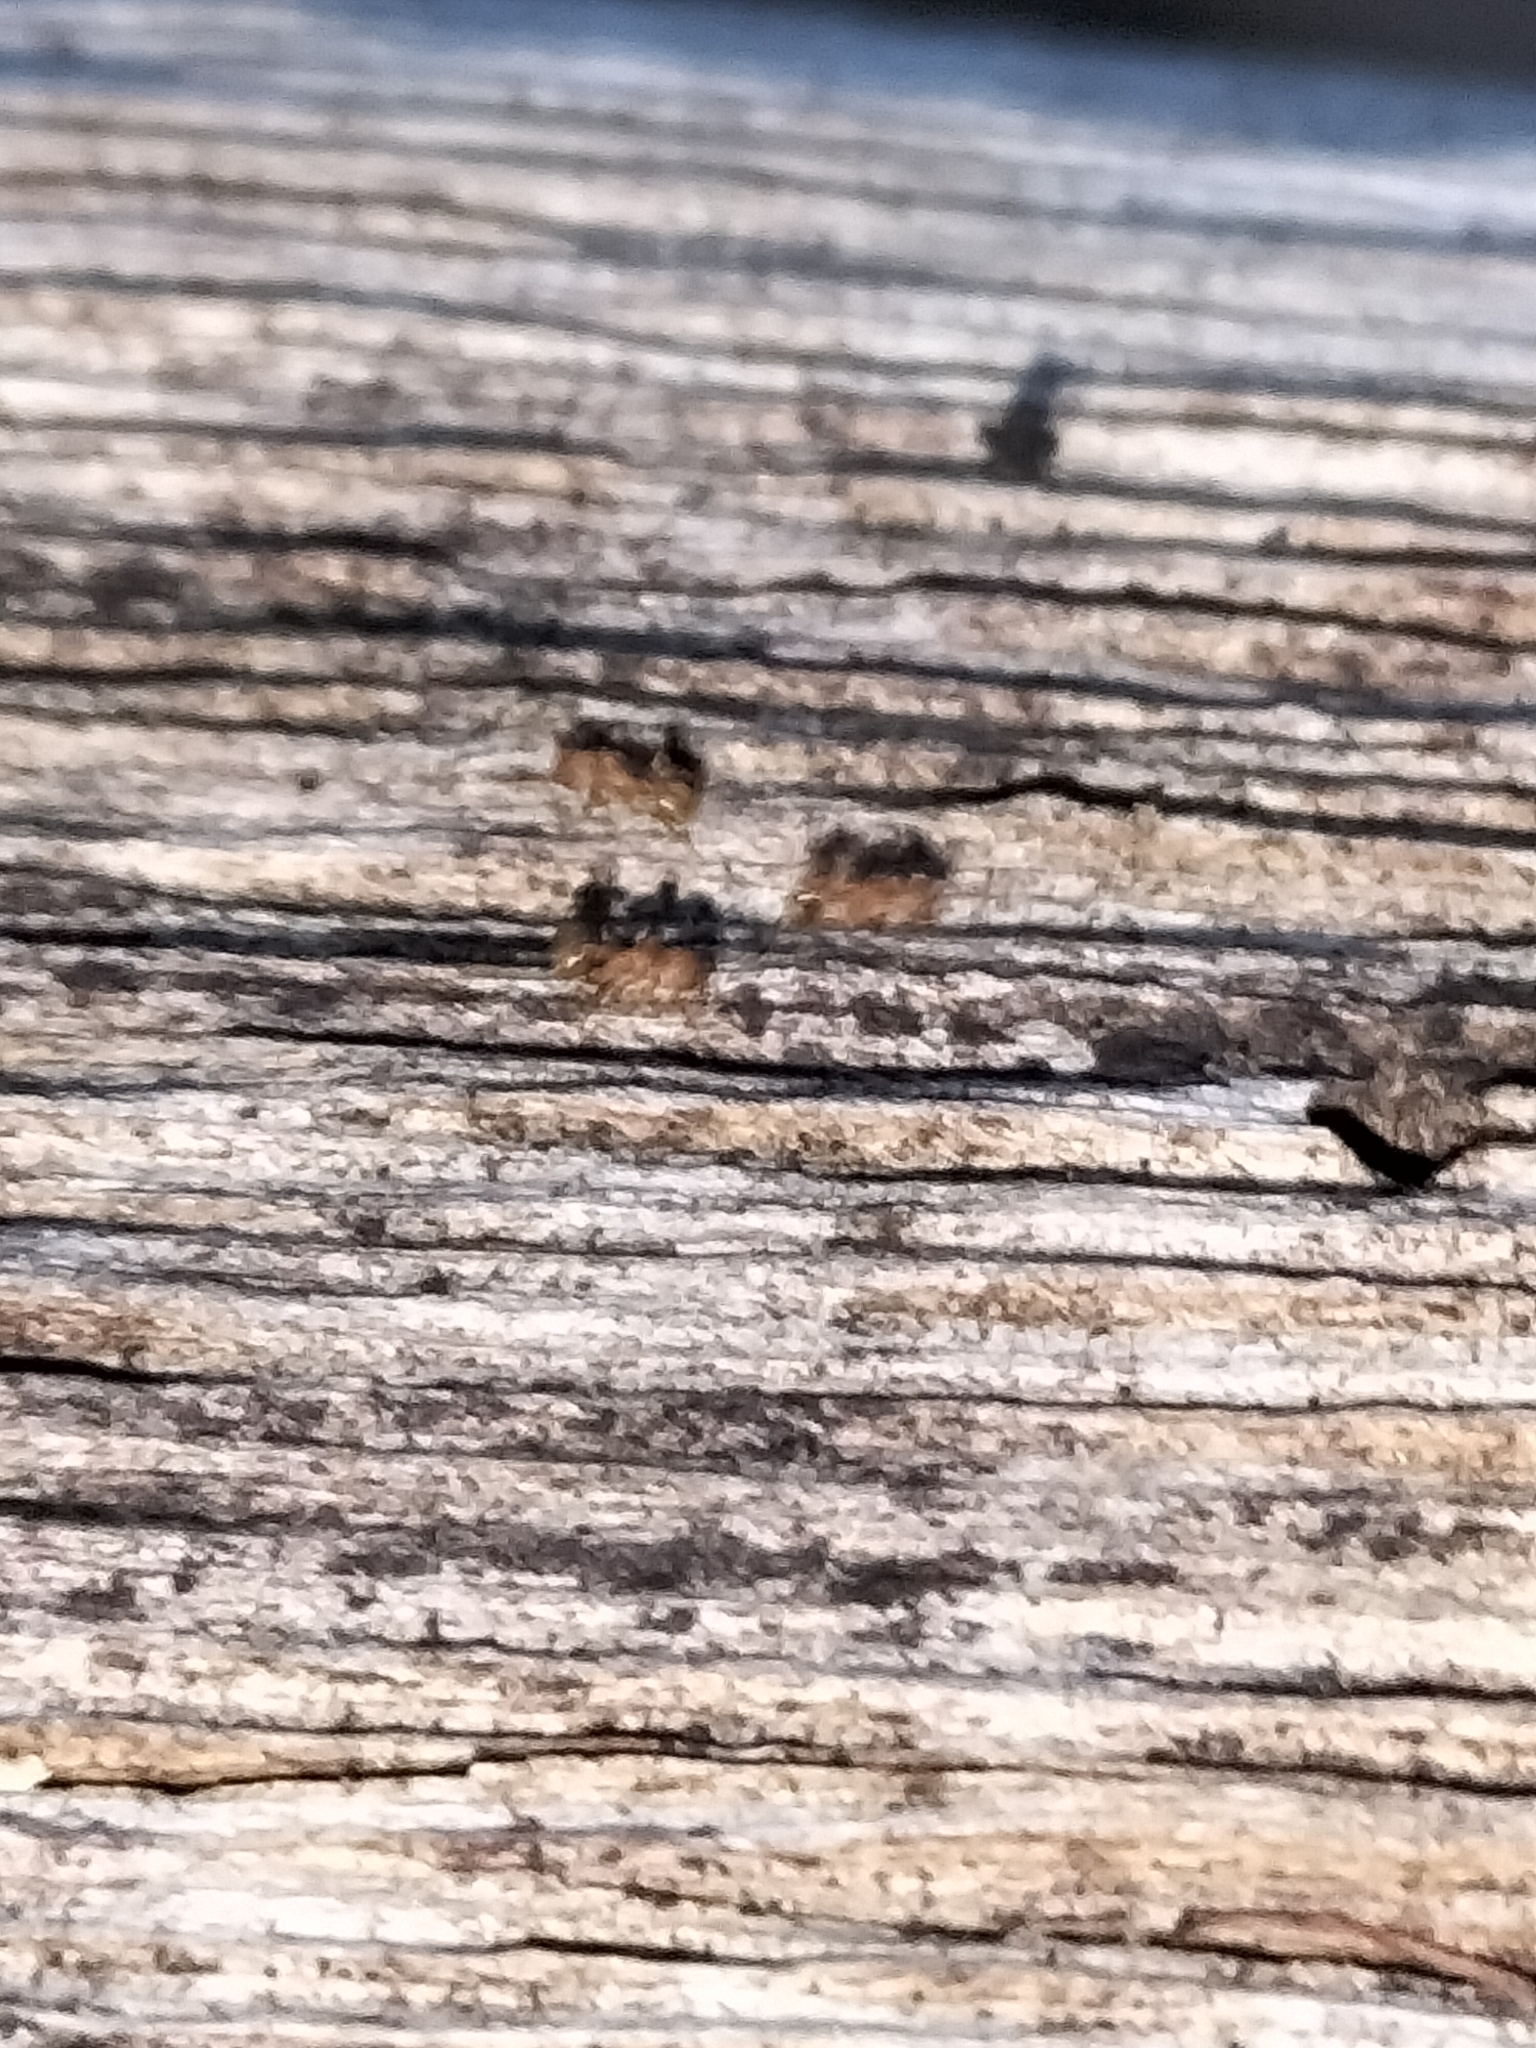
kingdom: Animalia
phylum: Arthropoda
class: Insecta
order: Hymenoptera
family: Formicidae
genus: Wasmannia
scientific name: Wasmannia auropunctata
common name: Little fire ant
